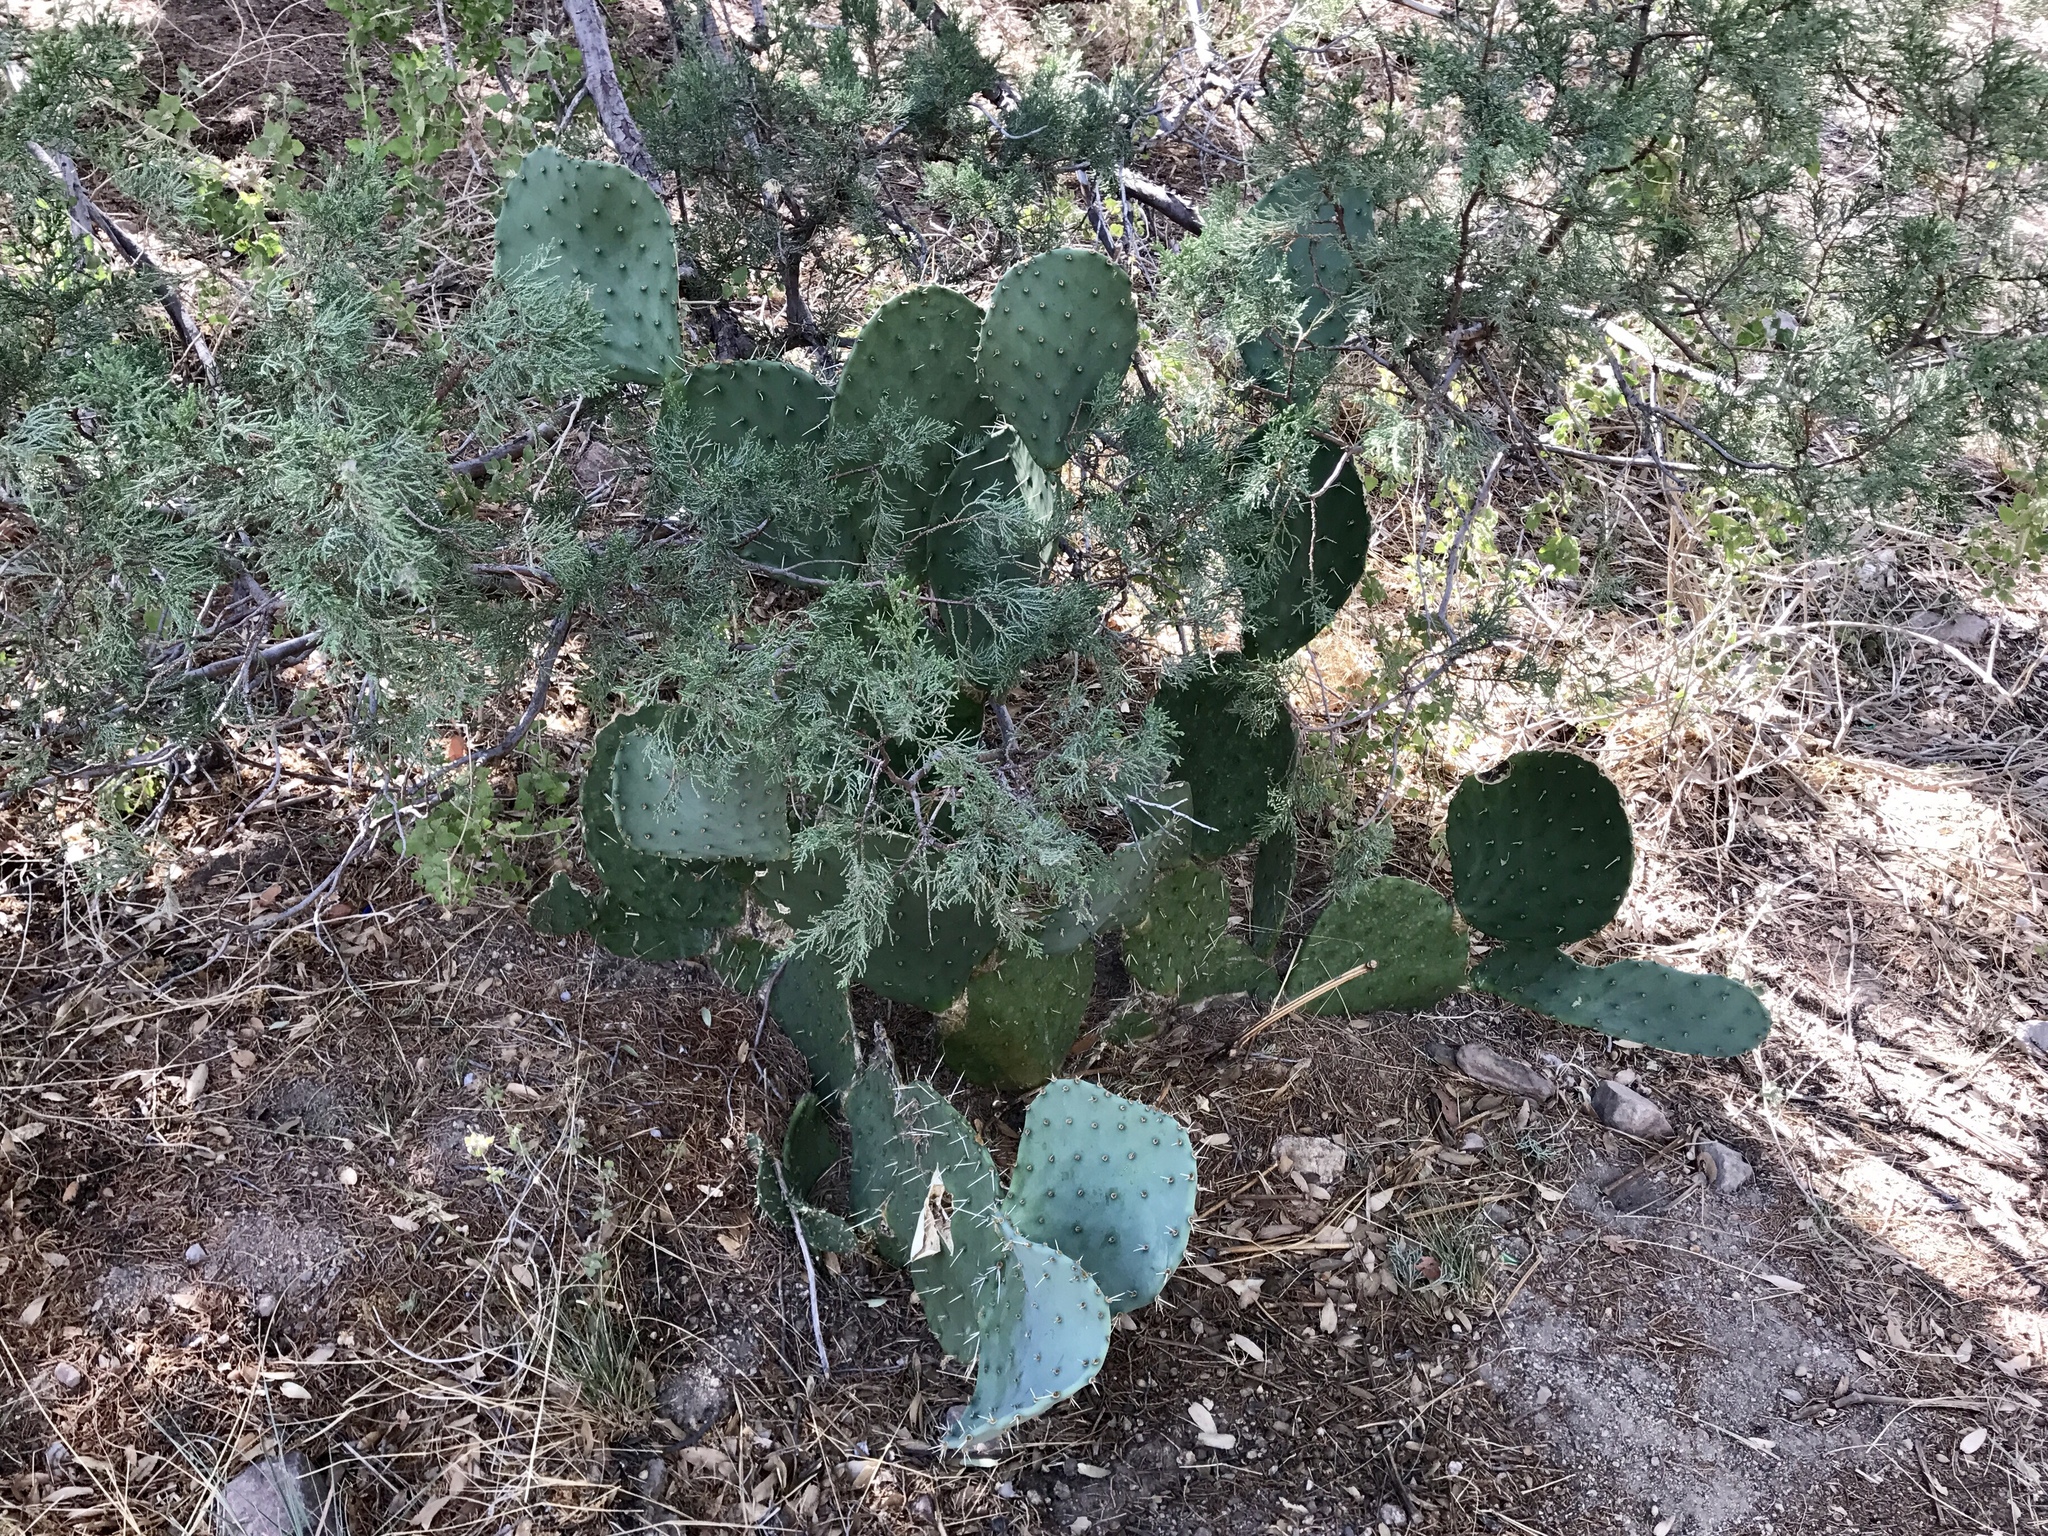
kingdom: Plantae
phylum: Tracheophyta
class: Magnoliopsida
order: Caryophyllales
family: Cactaceae
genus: Opuntia
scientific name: Opuntia chlorotica
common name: Dollar-joint prickly-pear
